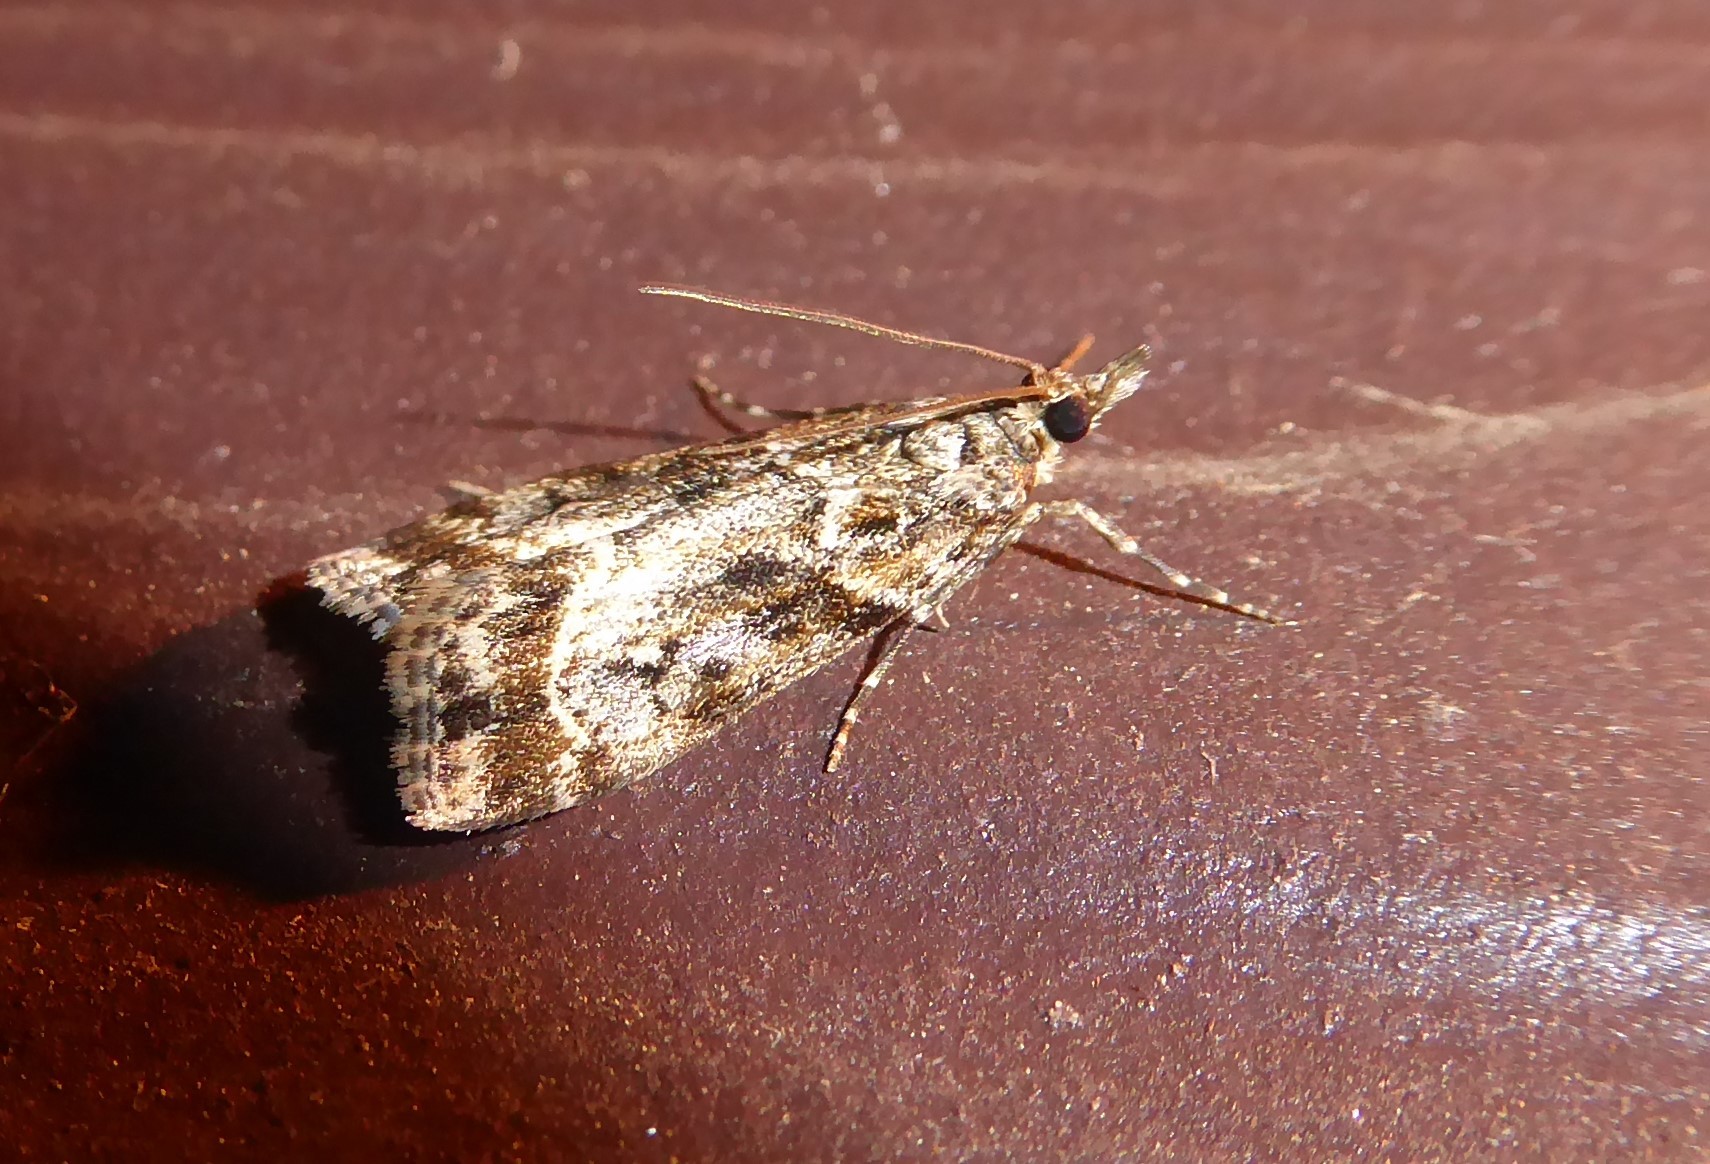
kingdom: Animalia
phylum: Arthropoda
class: Insecta
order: Lepidoptera
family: Crambidae
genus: Eudonia
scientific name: Eudonia legnota
